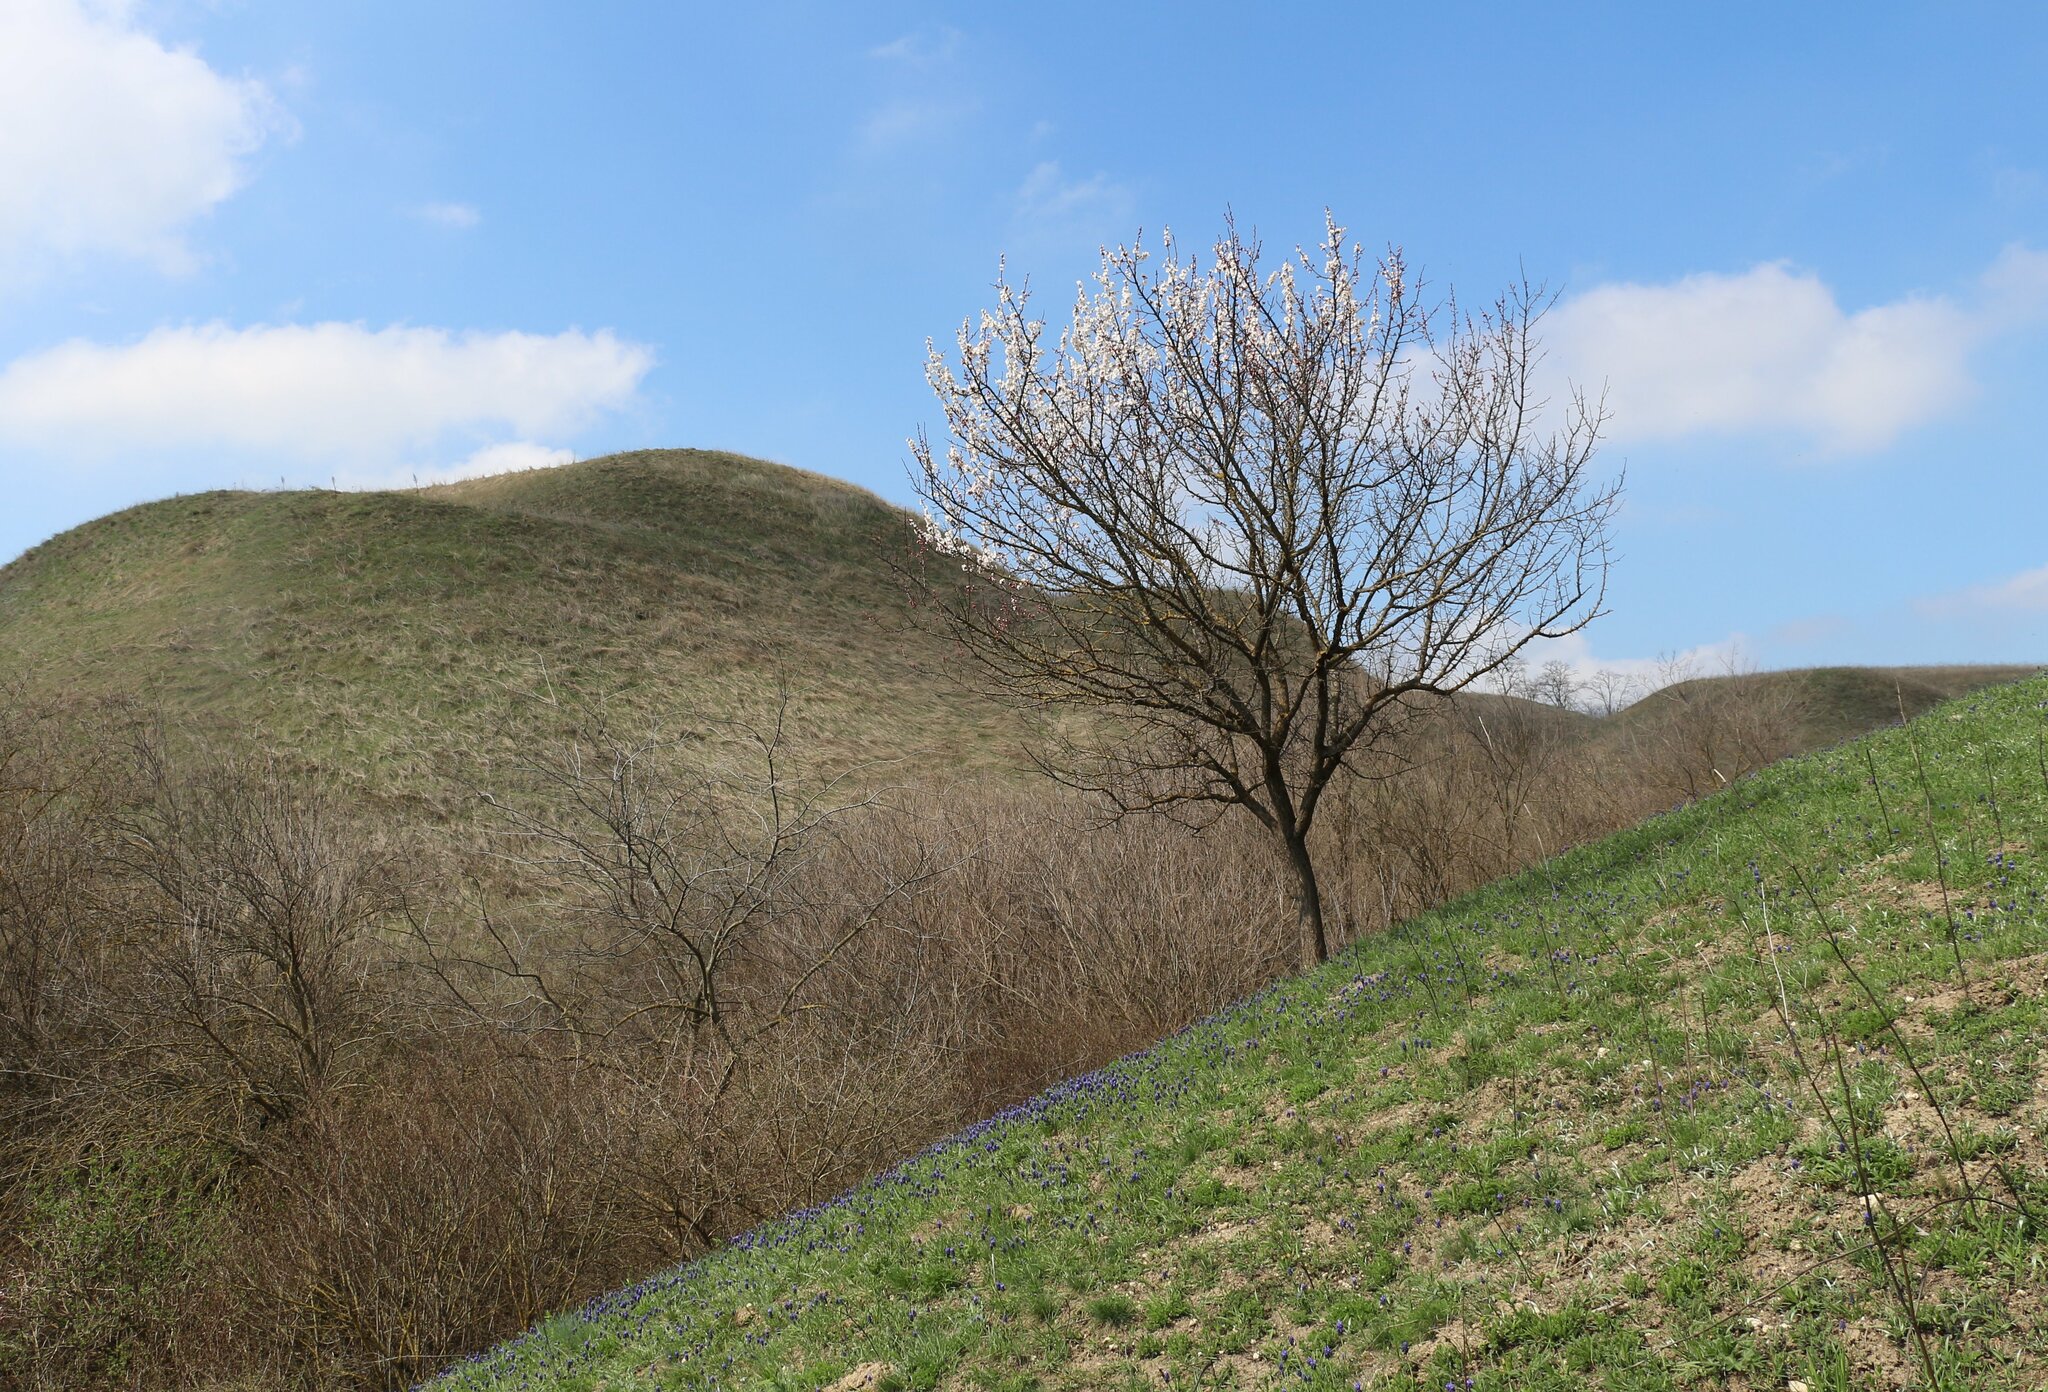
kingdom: Plantae
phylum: Tracheophyta
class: Magnoliopsida
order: Rosales
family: Rosaceae
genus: Prunus
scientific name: Prunus armeniaca
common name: Apricot
